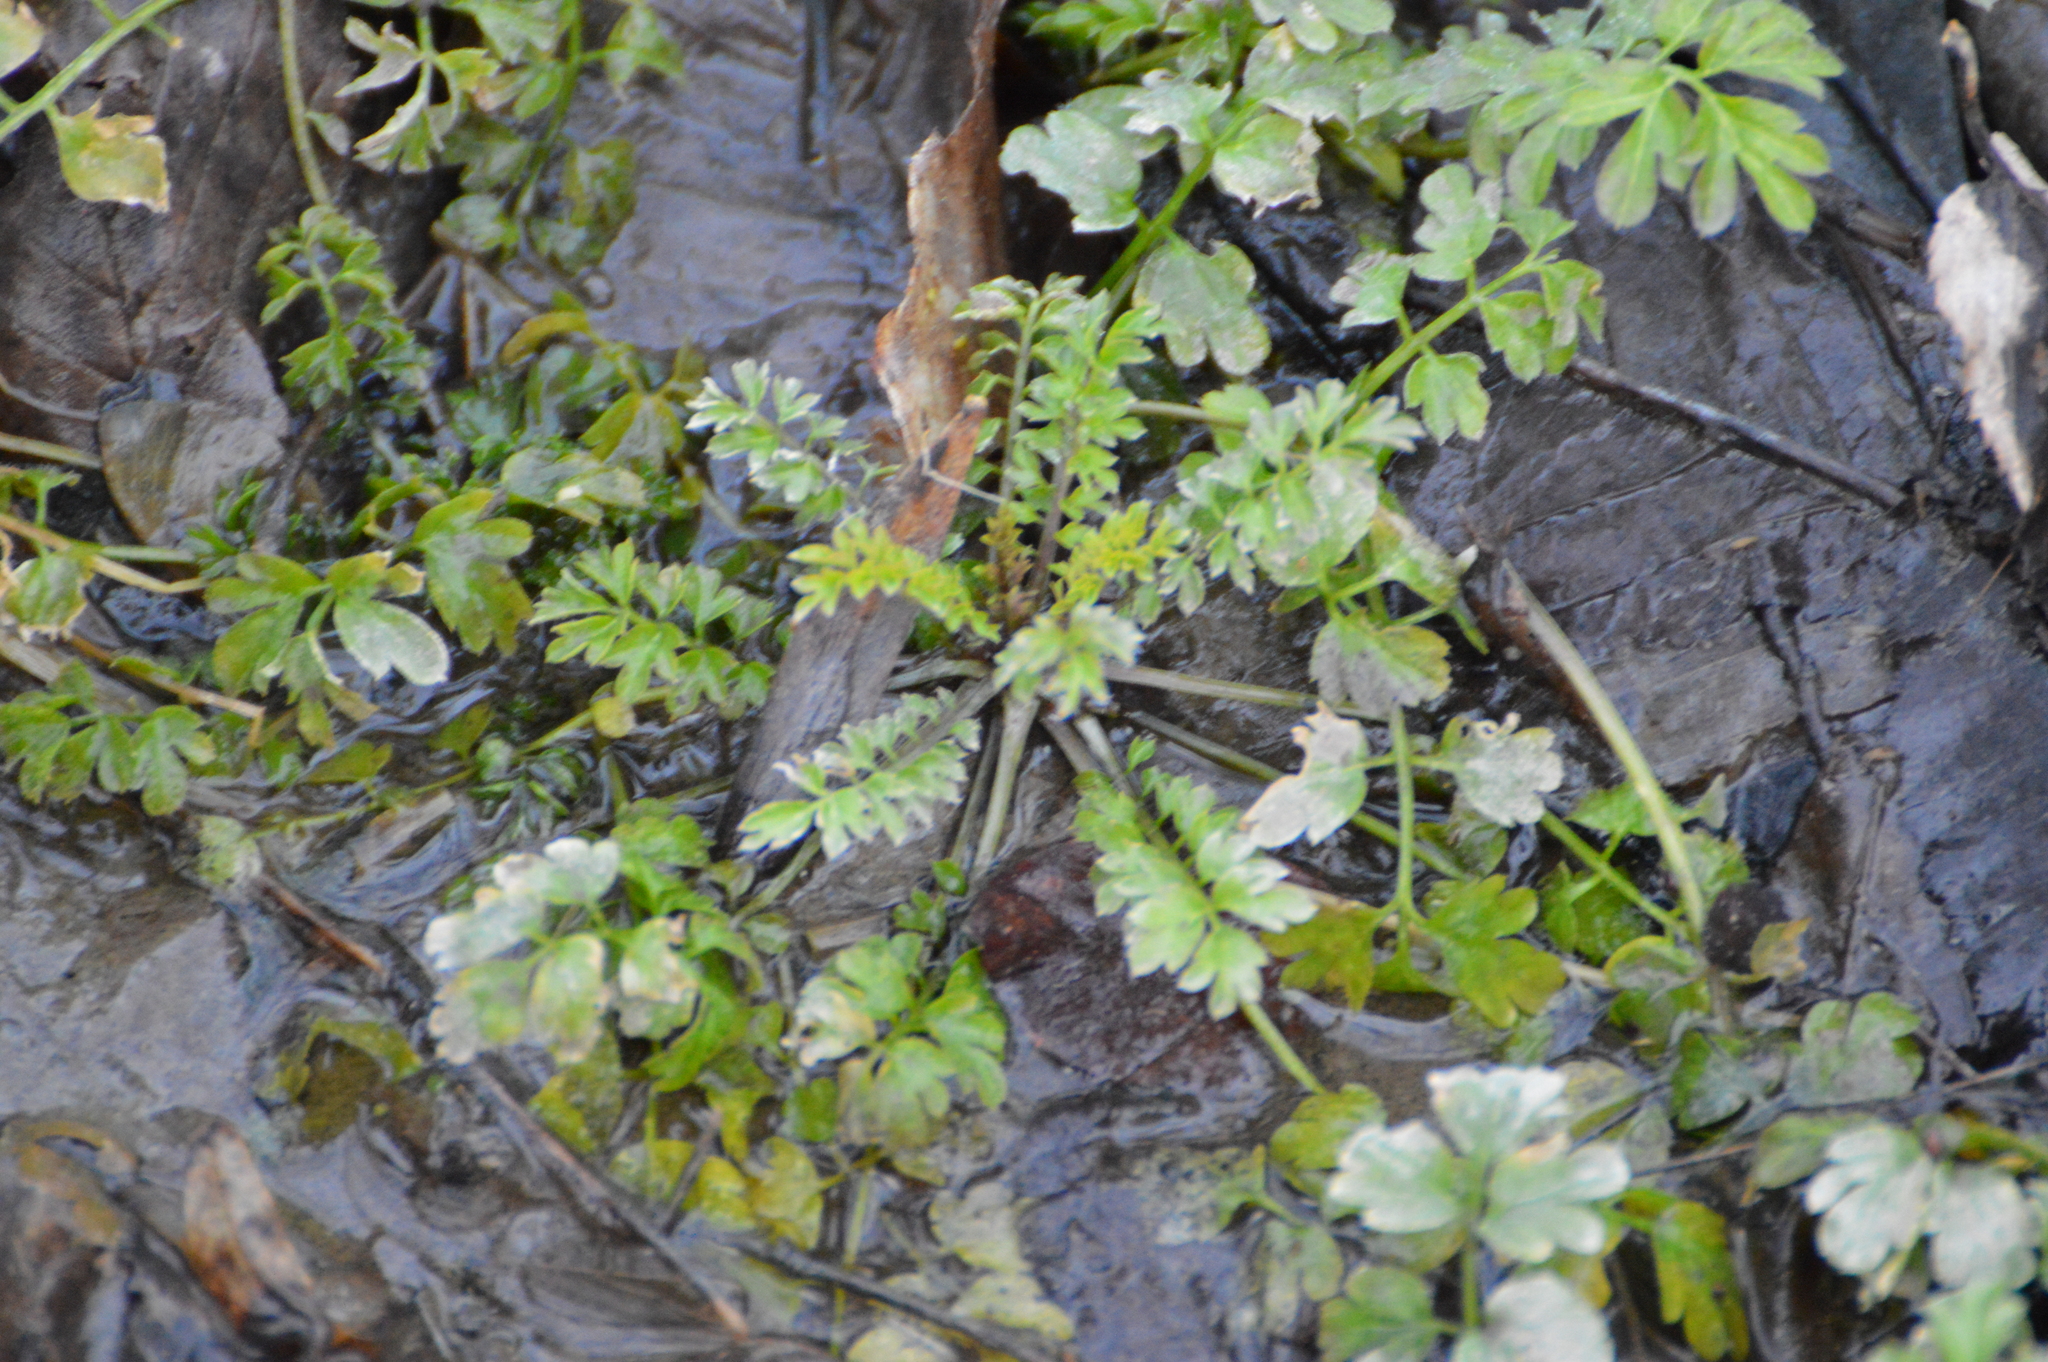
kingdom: Plantae
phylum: Tracheophyta
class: Magnoliopsida
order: Brassicales
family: Brassicaceae
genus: Cardamine
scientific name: Cardamine impatiens
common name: Narrow-leaved bitter-cress
